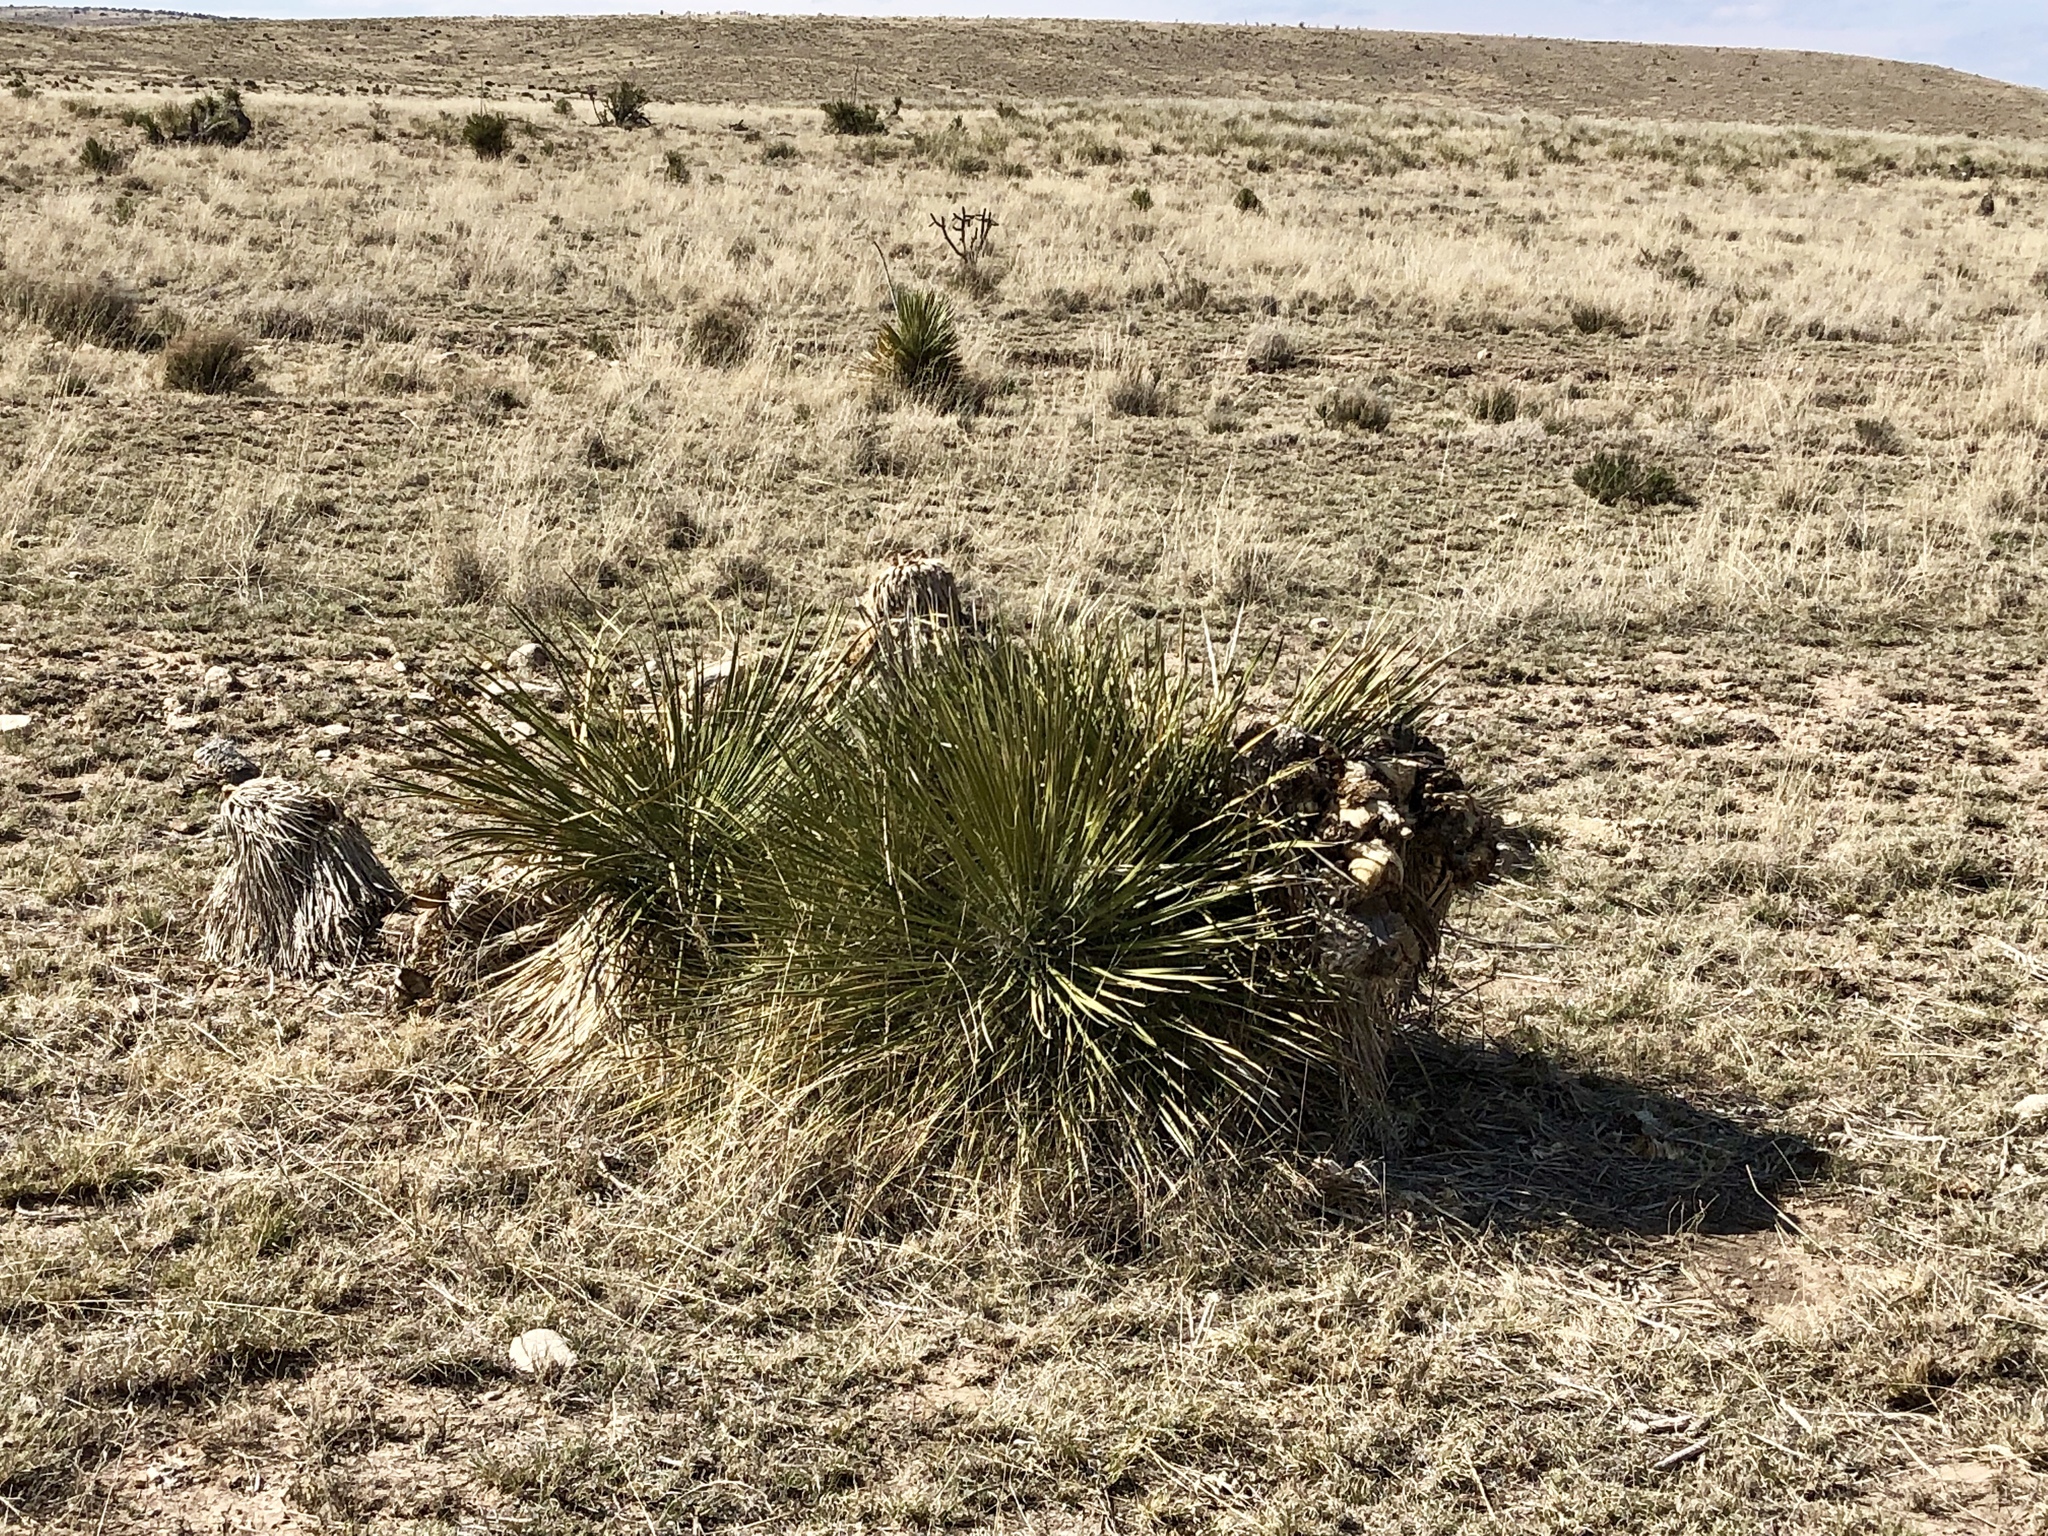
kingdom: Plantae
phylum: Tracheophyta
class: Liliopsida
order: Asparagales
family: Asparagaceae
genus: Yucca
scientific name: Yucca elata
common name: Palmella
